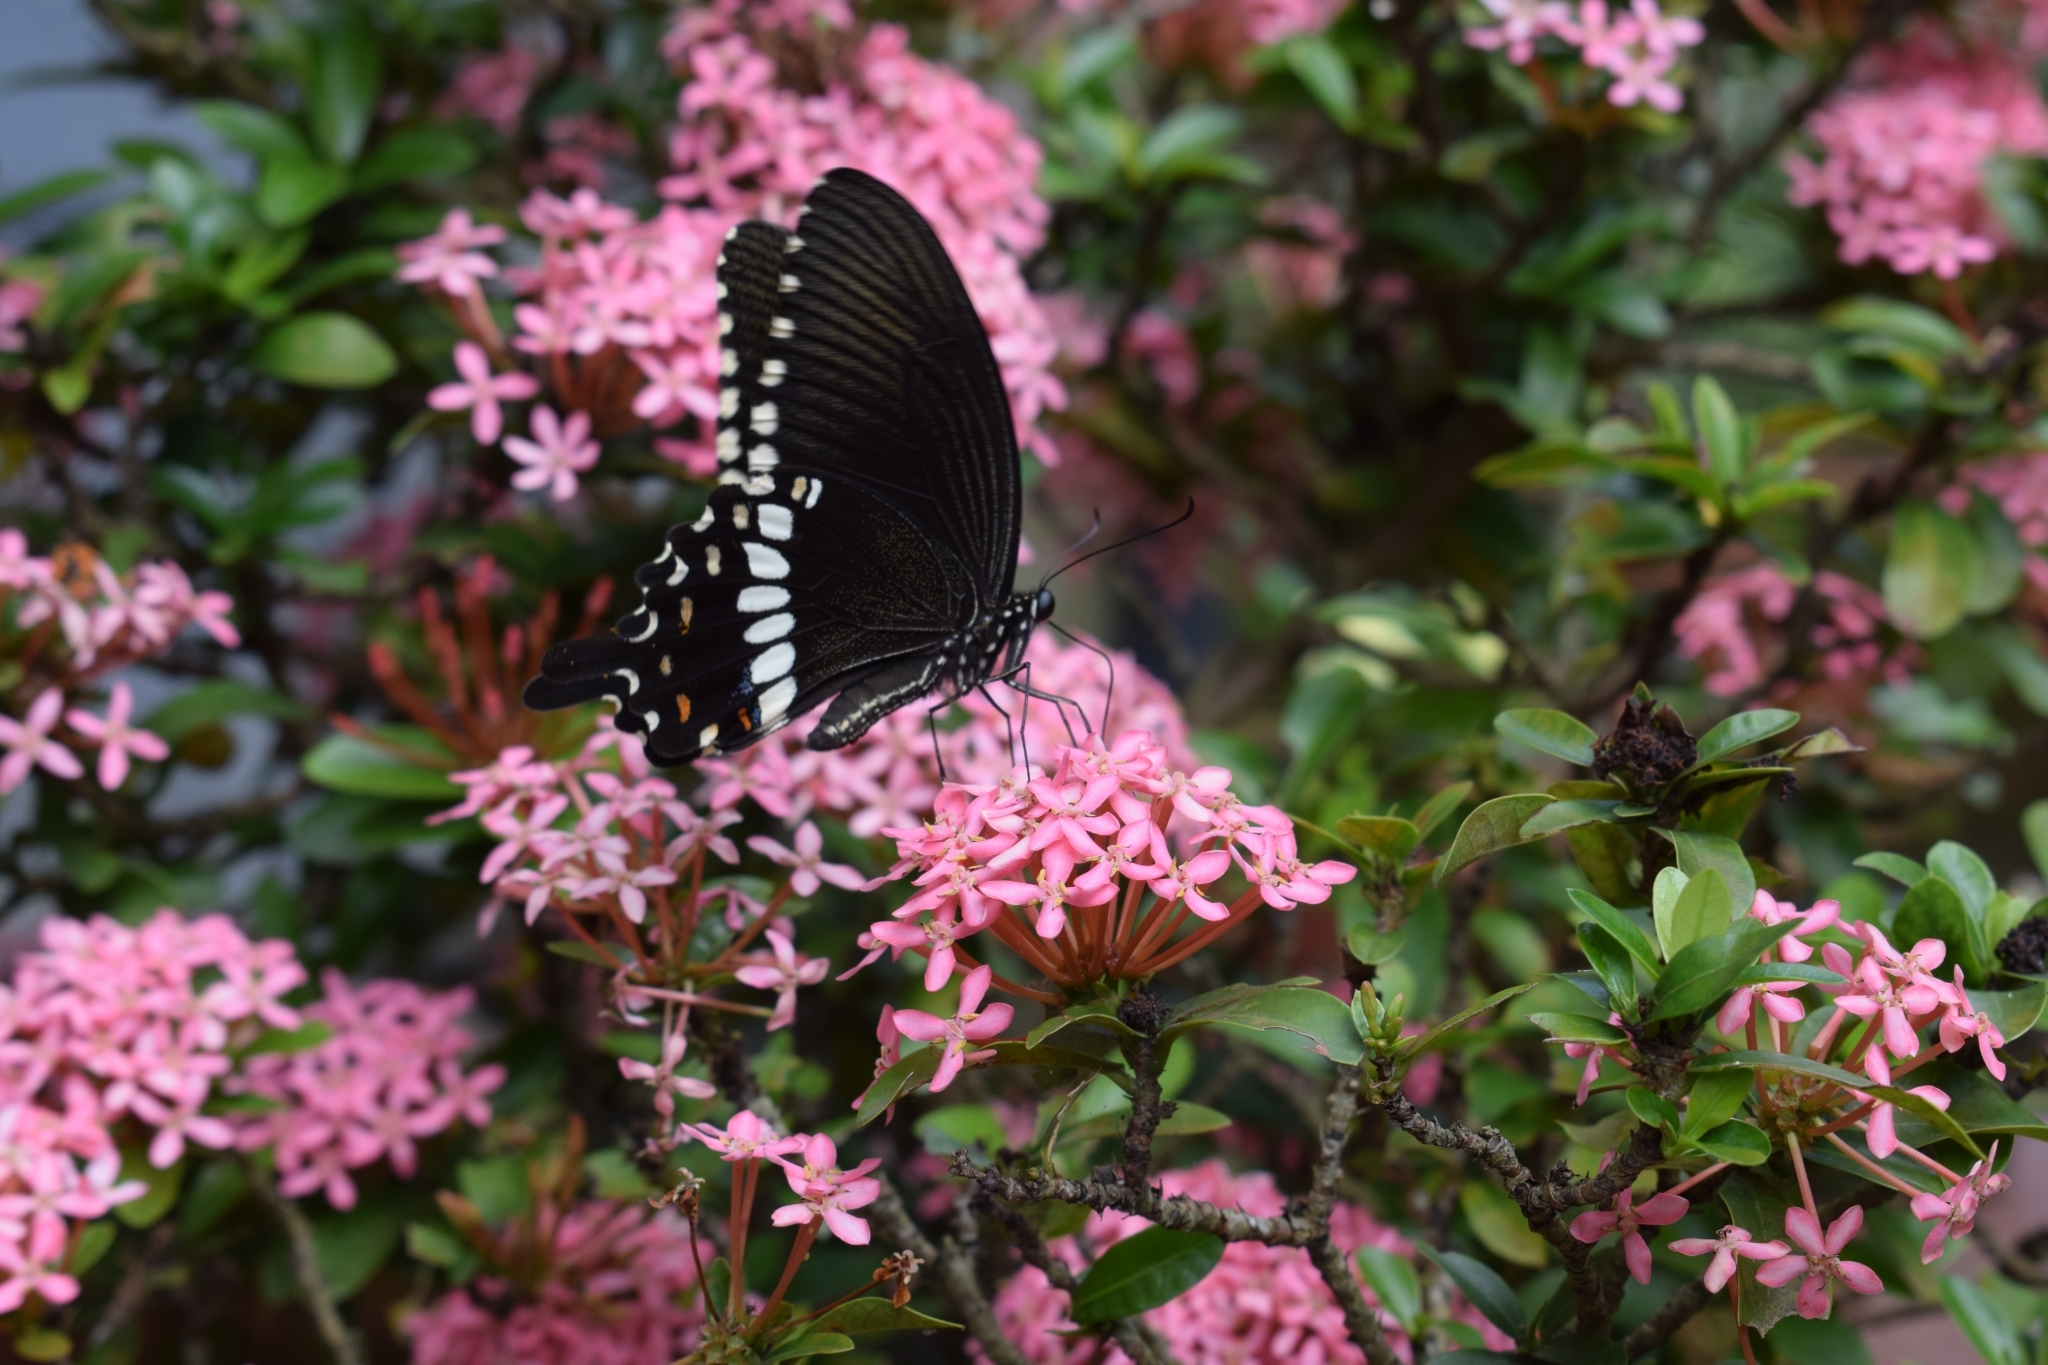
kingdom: Animalia
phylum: Arthropoda
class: Insecta
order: Lepidoptera
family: Papilionidae
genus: Papilio
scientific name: Papilio polytes
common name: Common mormon
